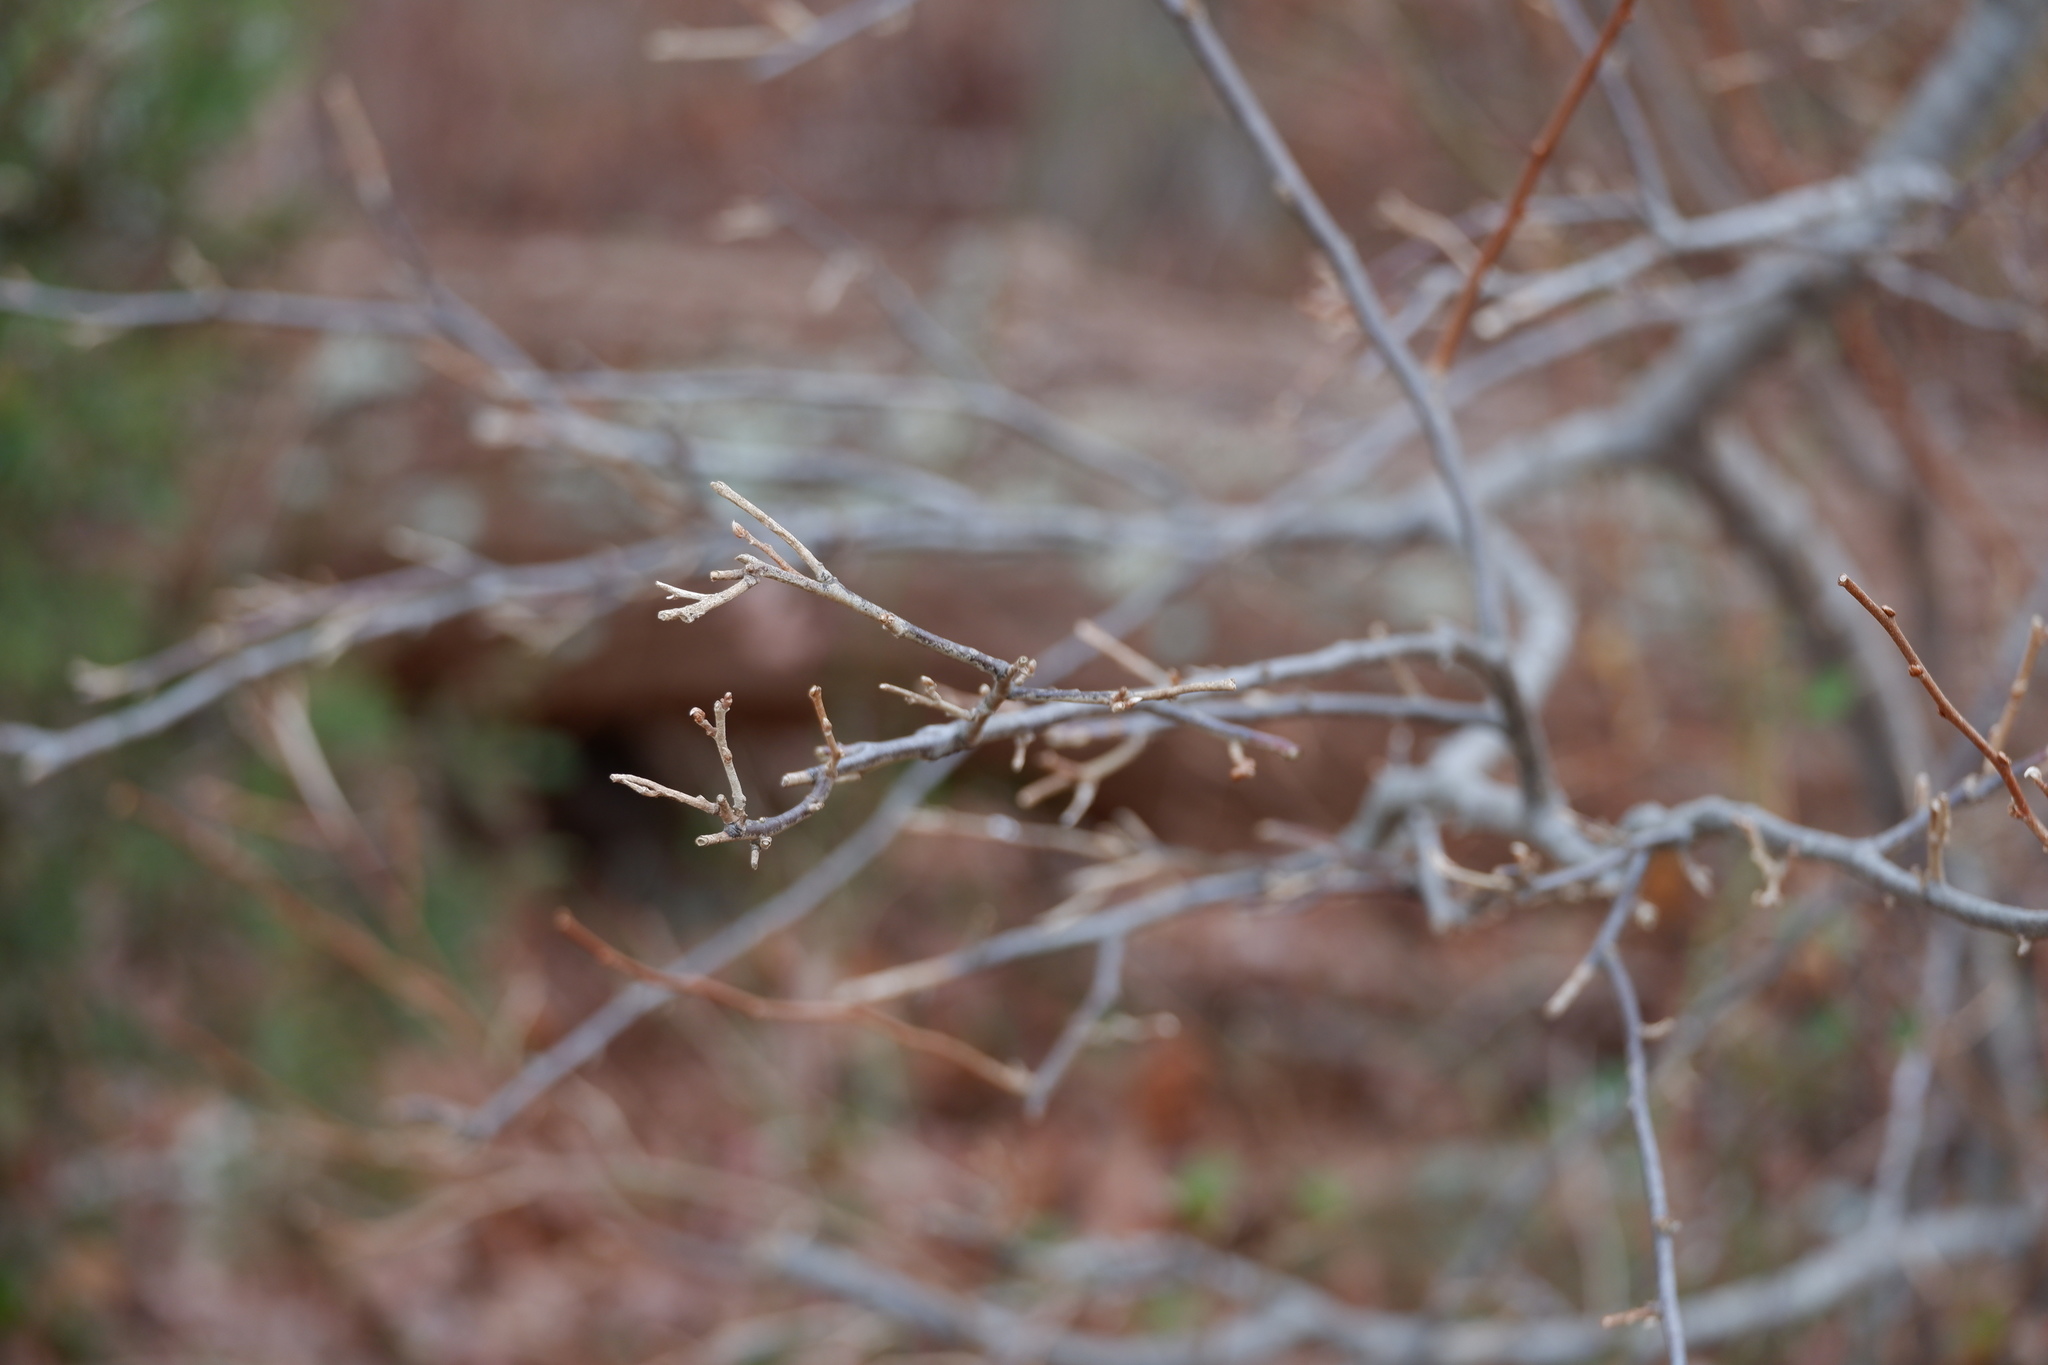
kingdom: Plantae
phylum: Tracheophyta
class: Magnoliopsida
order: Rosales
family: Elaeagnaceae
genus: Elaeagnus
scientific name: Elaeagnus umbellata
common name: Autumn olive
